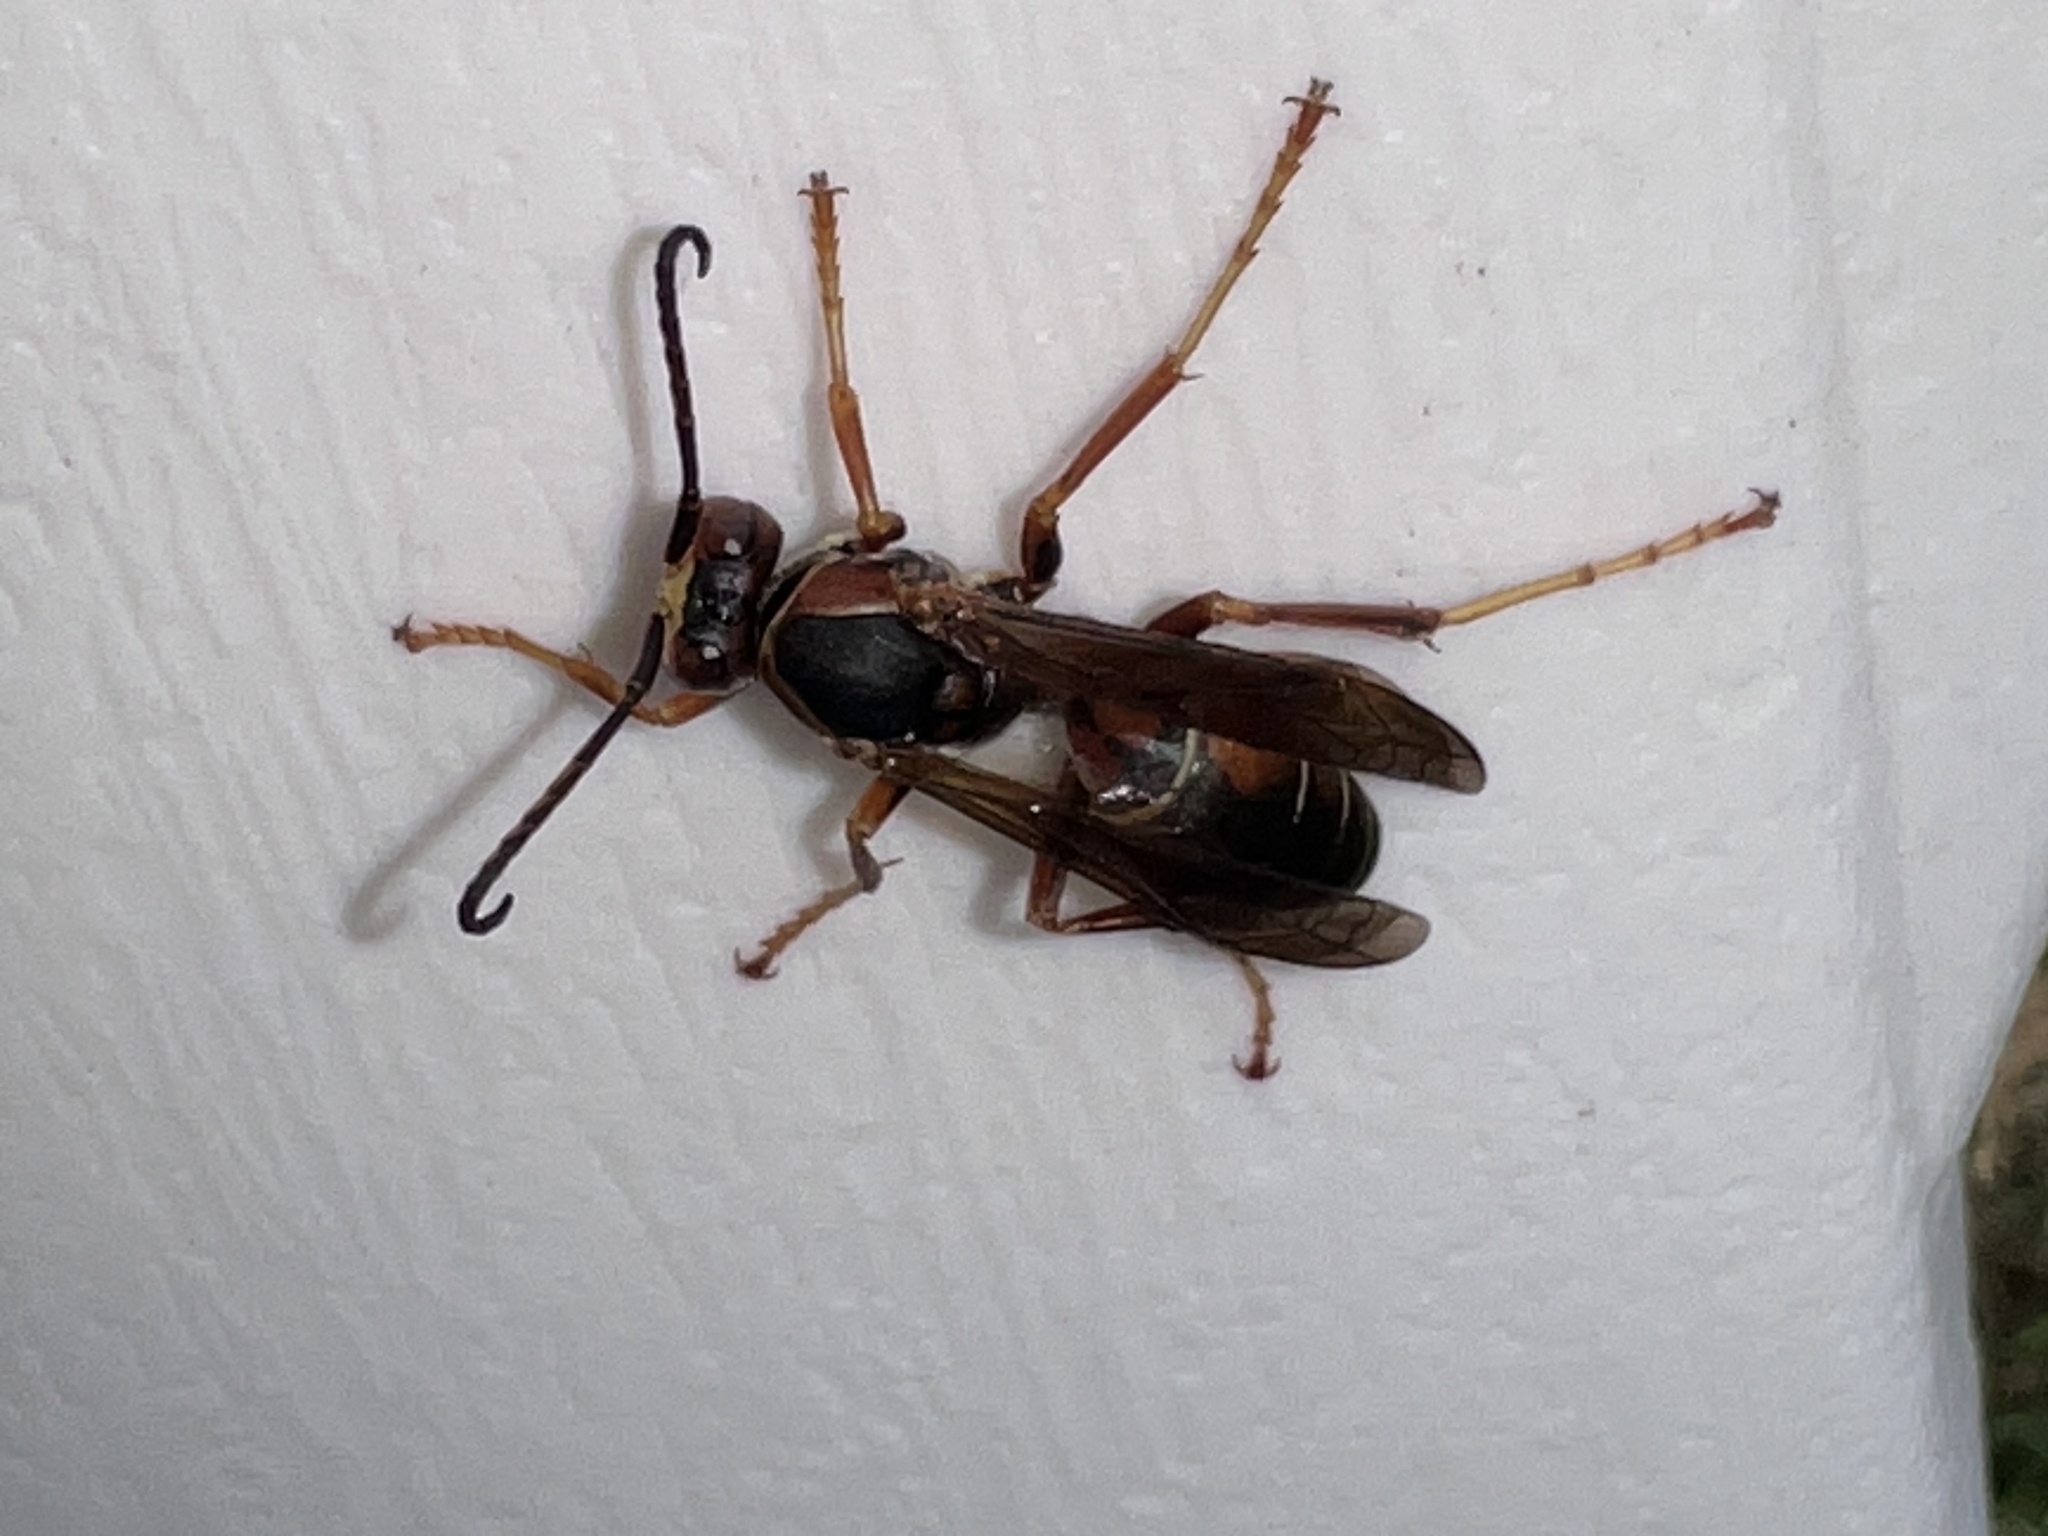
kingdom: Animalia
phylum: Arthropoda
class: Insecta
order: Hymenoptera
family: Eumenidae
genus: Polistes
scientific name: Polistes fuscatus
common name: Dark paper wasp
